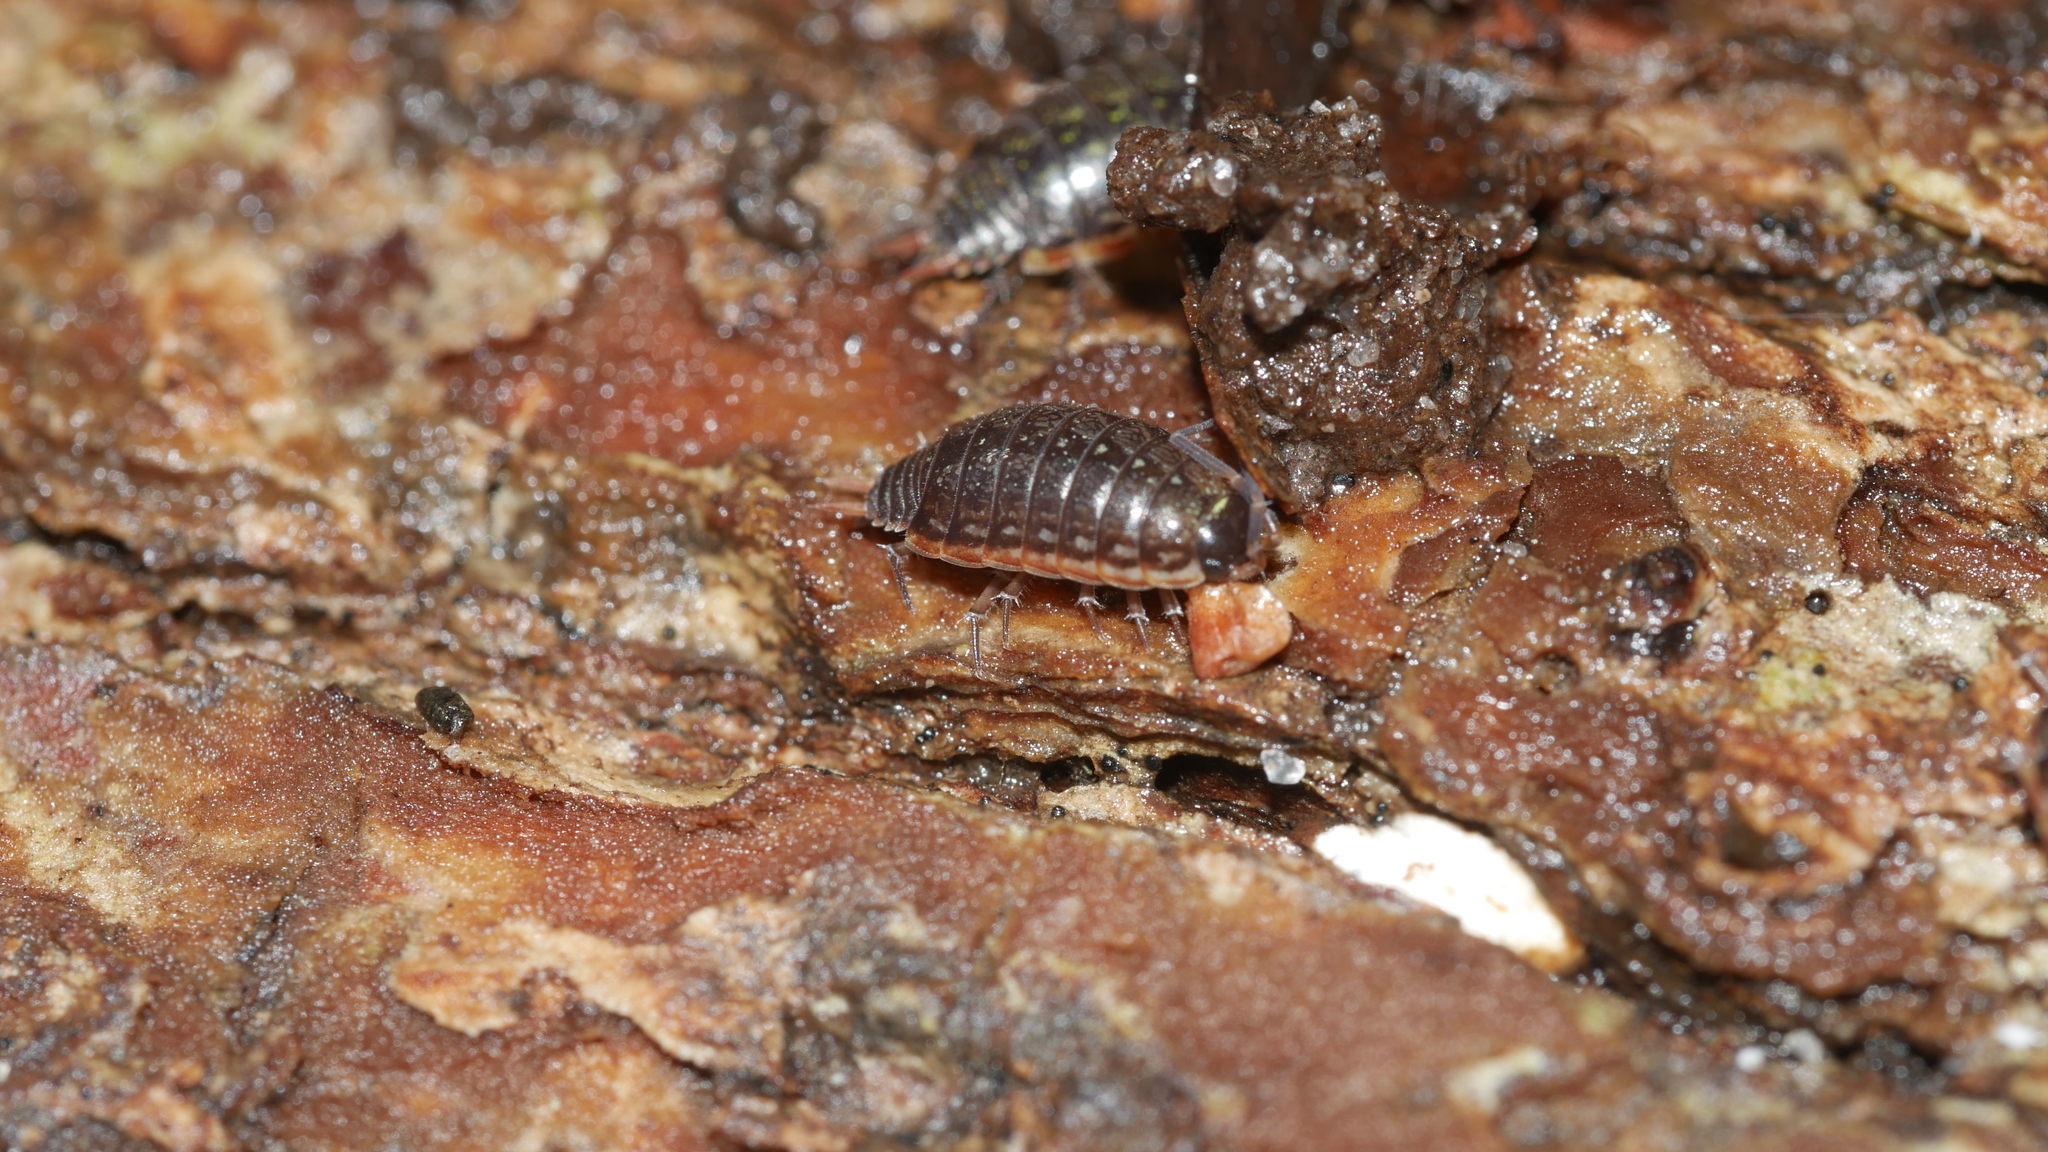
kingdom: Animalia
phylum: Arthropoda
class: Malacostraca
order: Isopoda
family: Philosciidae
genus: Philoscia
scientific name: Philoscia muscorum
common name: Common striped woodlouse
